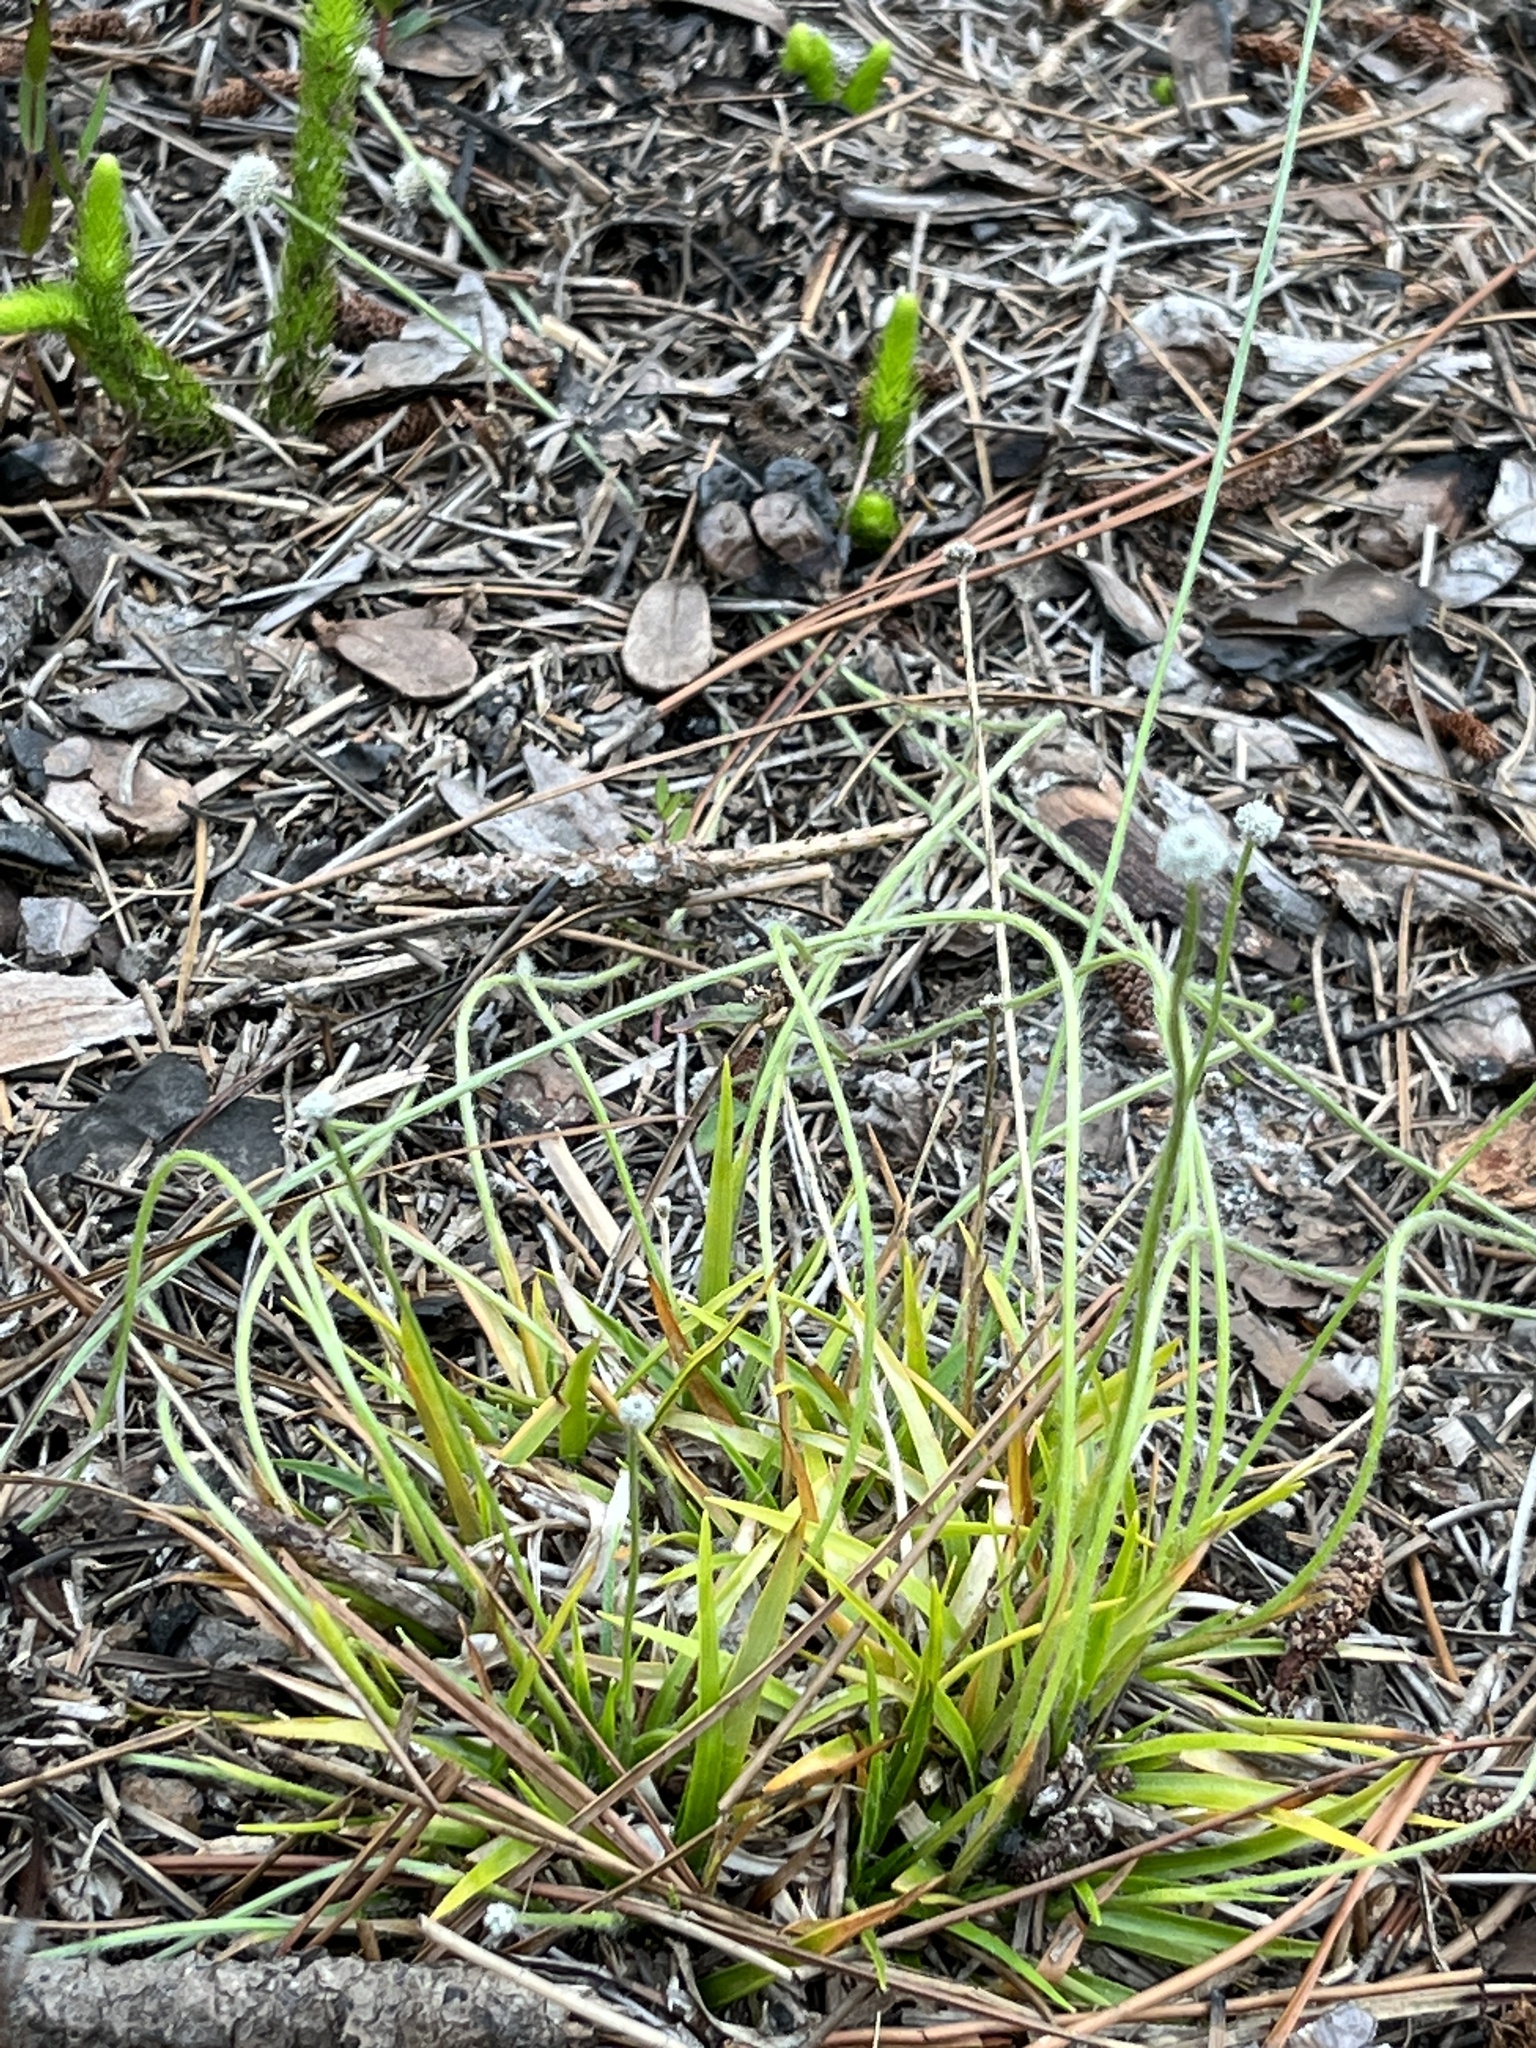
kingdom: Plantae
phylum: Tracheophyta
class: Liliopsida
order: Poales
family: Eriocaulaceae
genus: Paepalanthus
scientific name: Paepalanthus anceps
